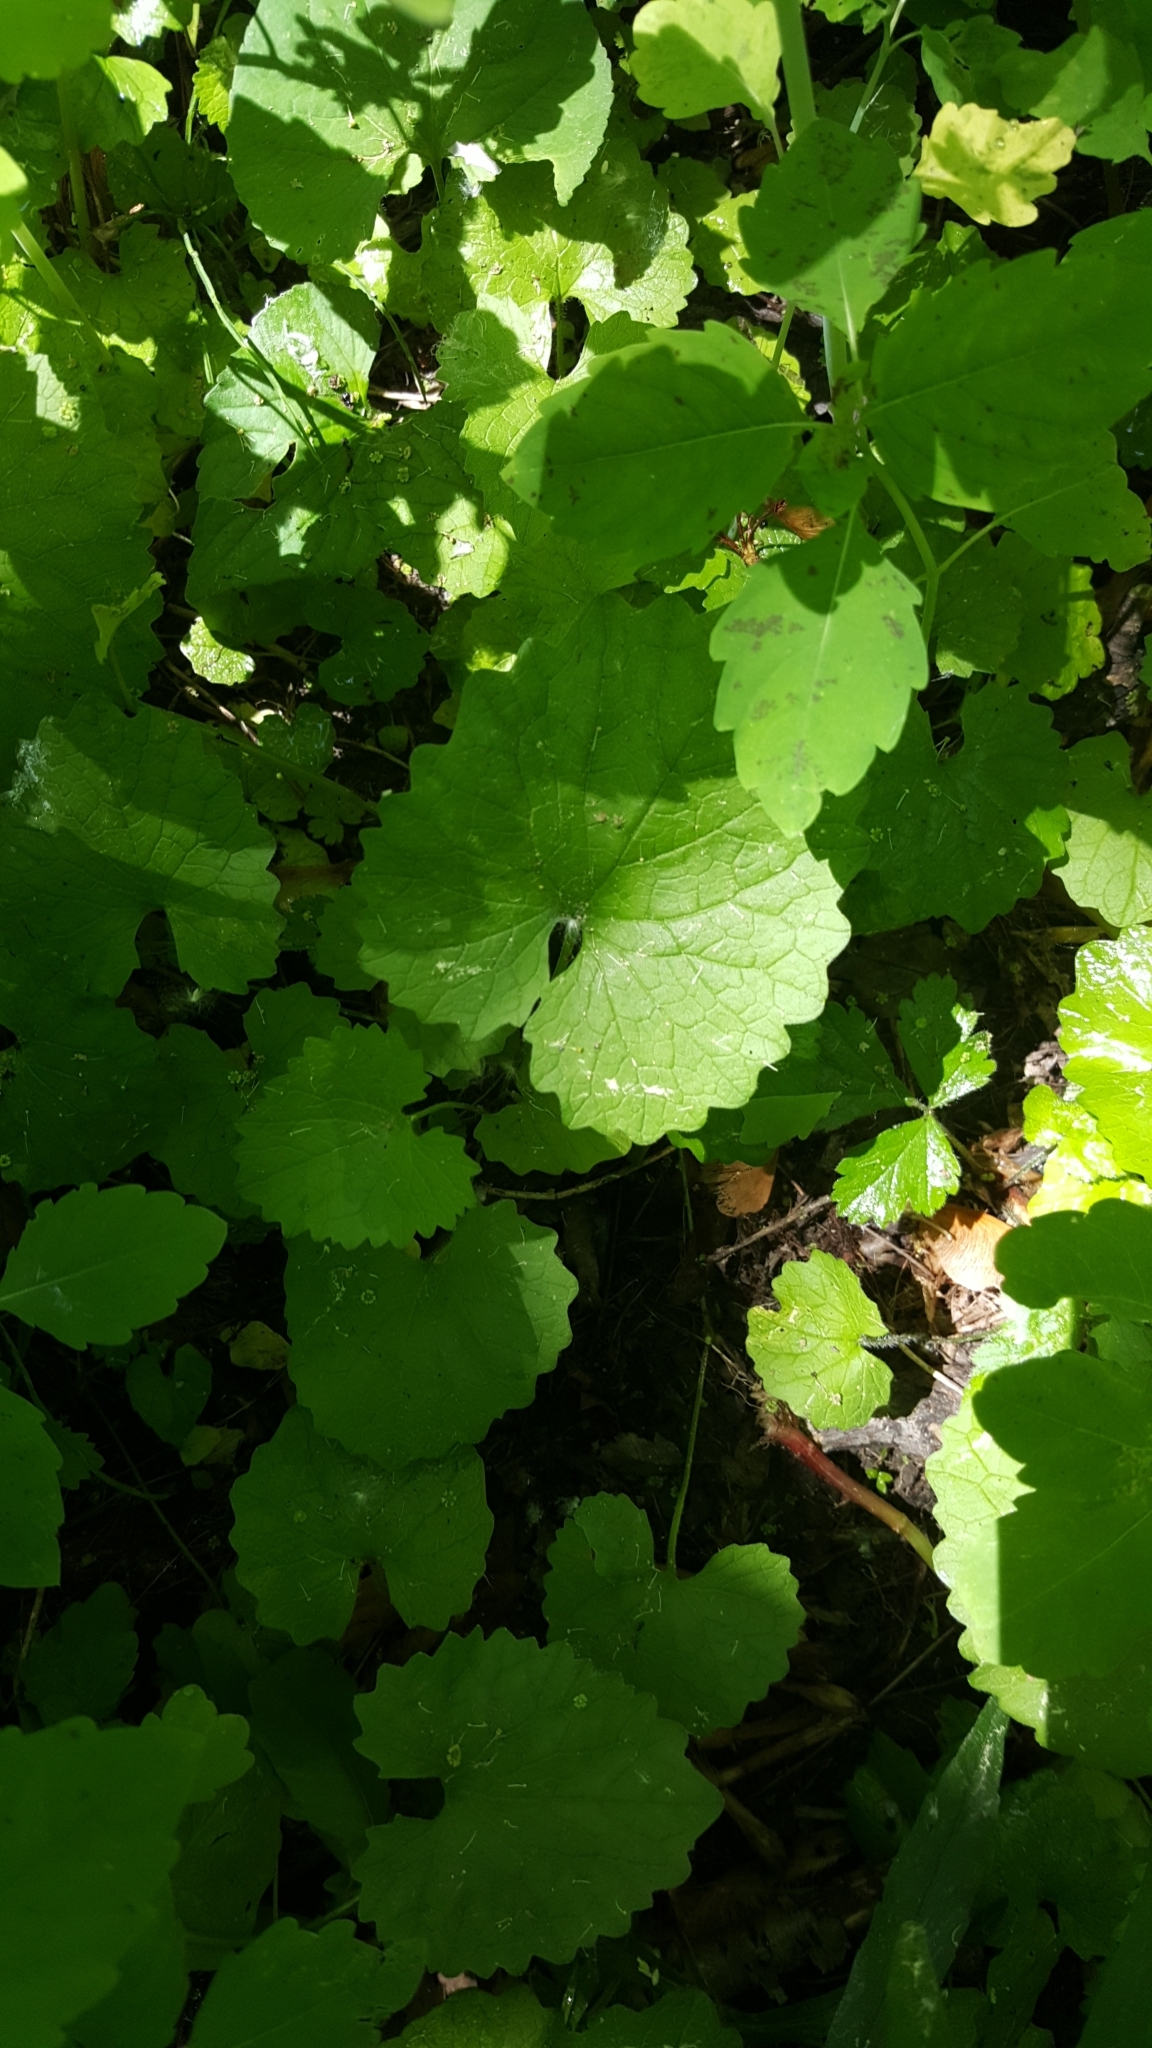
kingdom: Plantae
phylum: Tracheophyta
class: Magnoliopsida
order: Brassicales
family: Brassicaceae
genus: Alliaria
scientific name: Alliaria petiolata
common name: Garlic mustard
